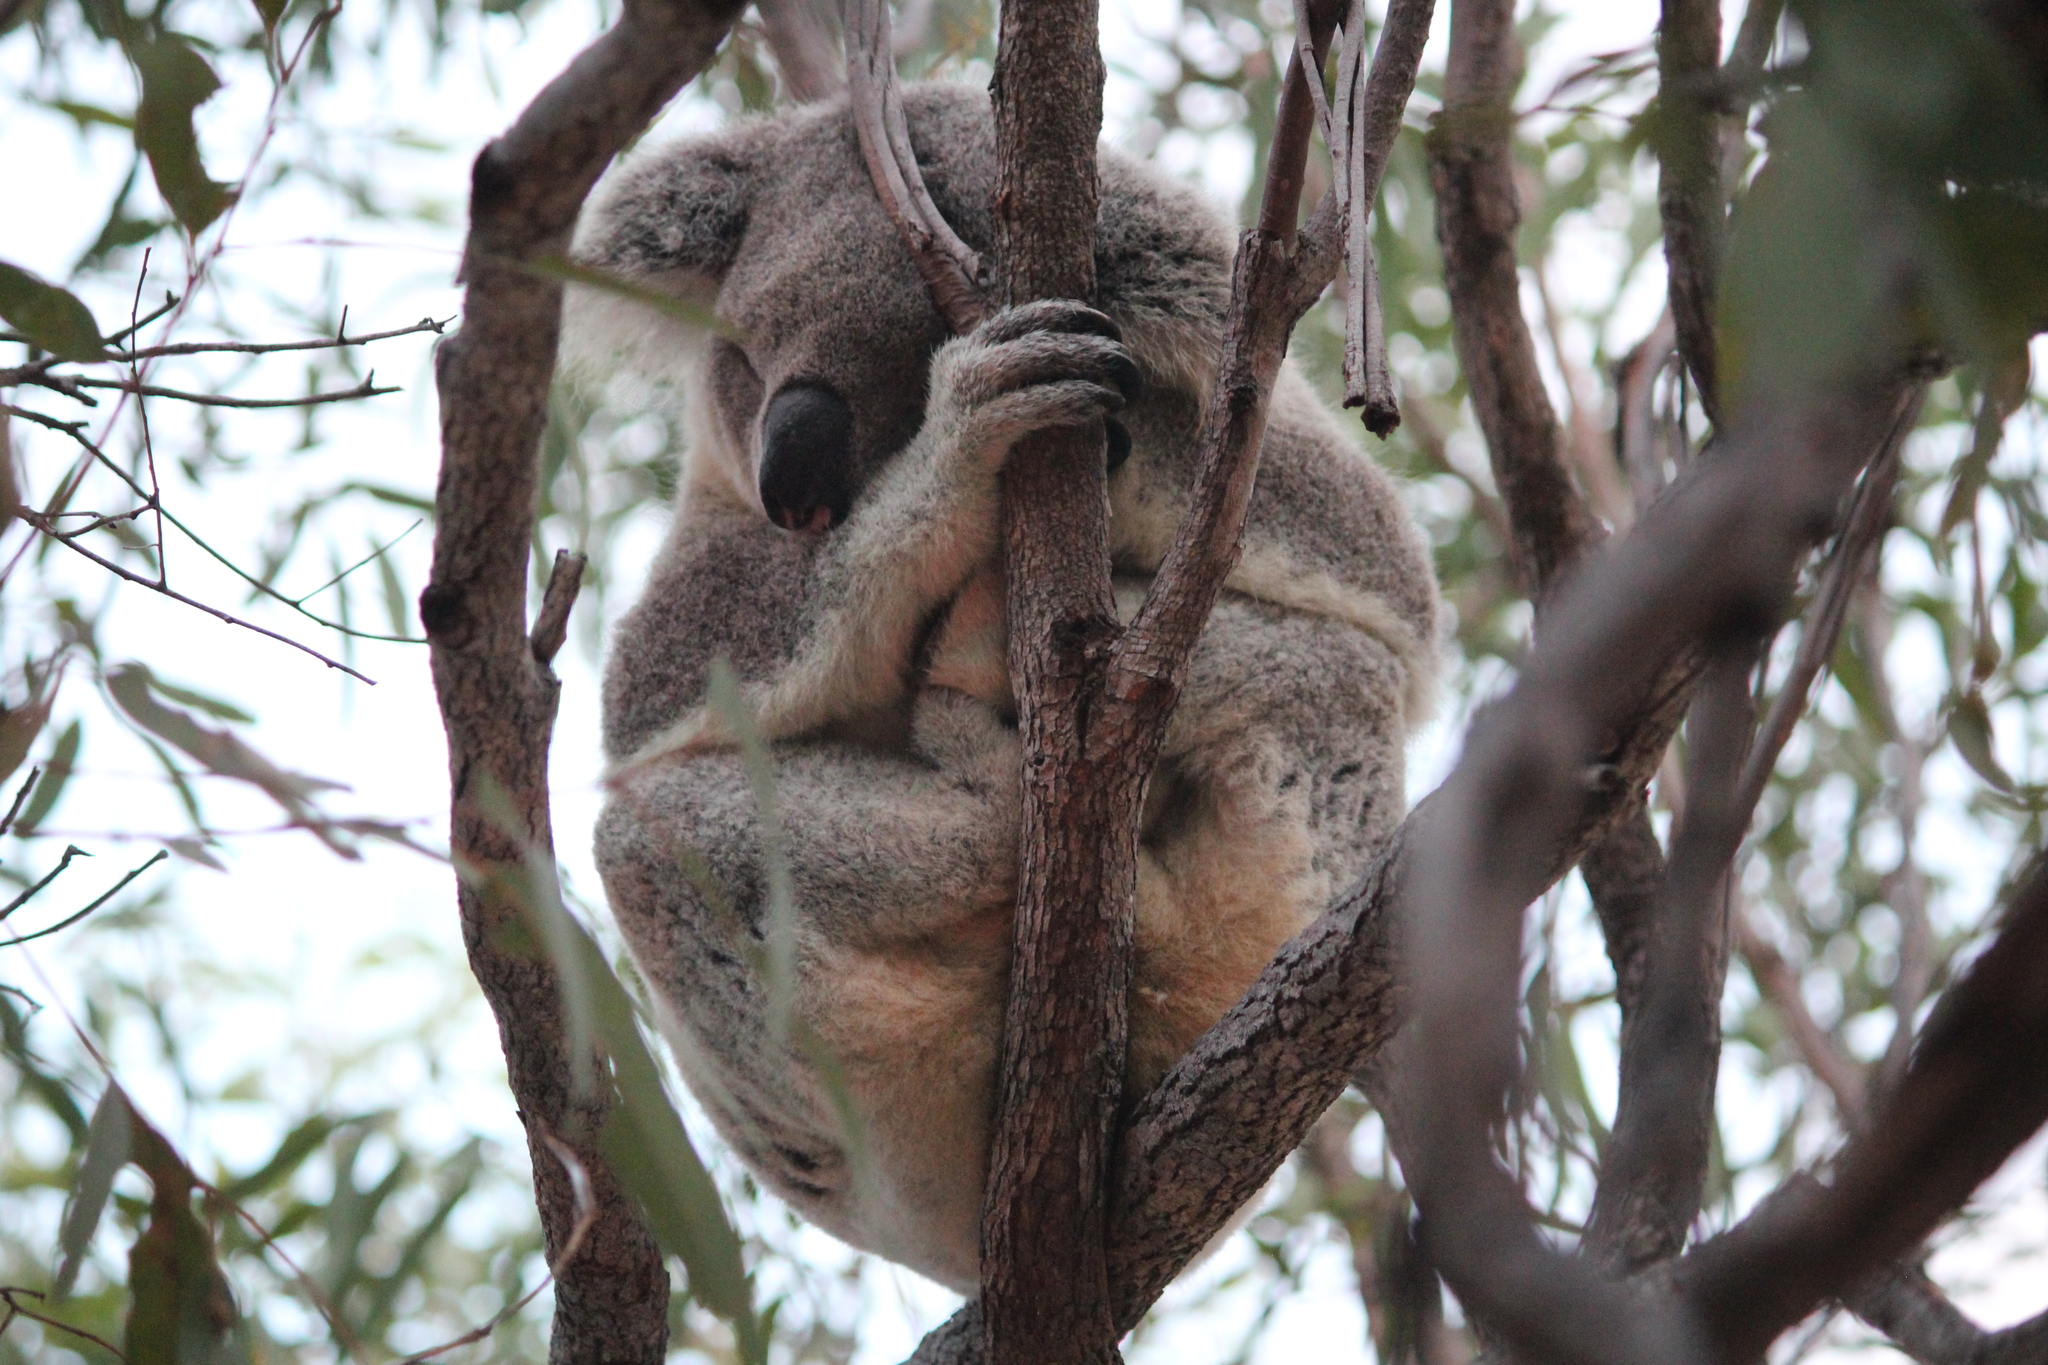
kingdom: Animalia
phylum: Chordata
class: Mammalia
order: Diprotodontia
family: Phascolarctidae
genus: Phascolarctos
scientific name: Phascolarctos cinereus
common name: Koala
